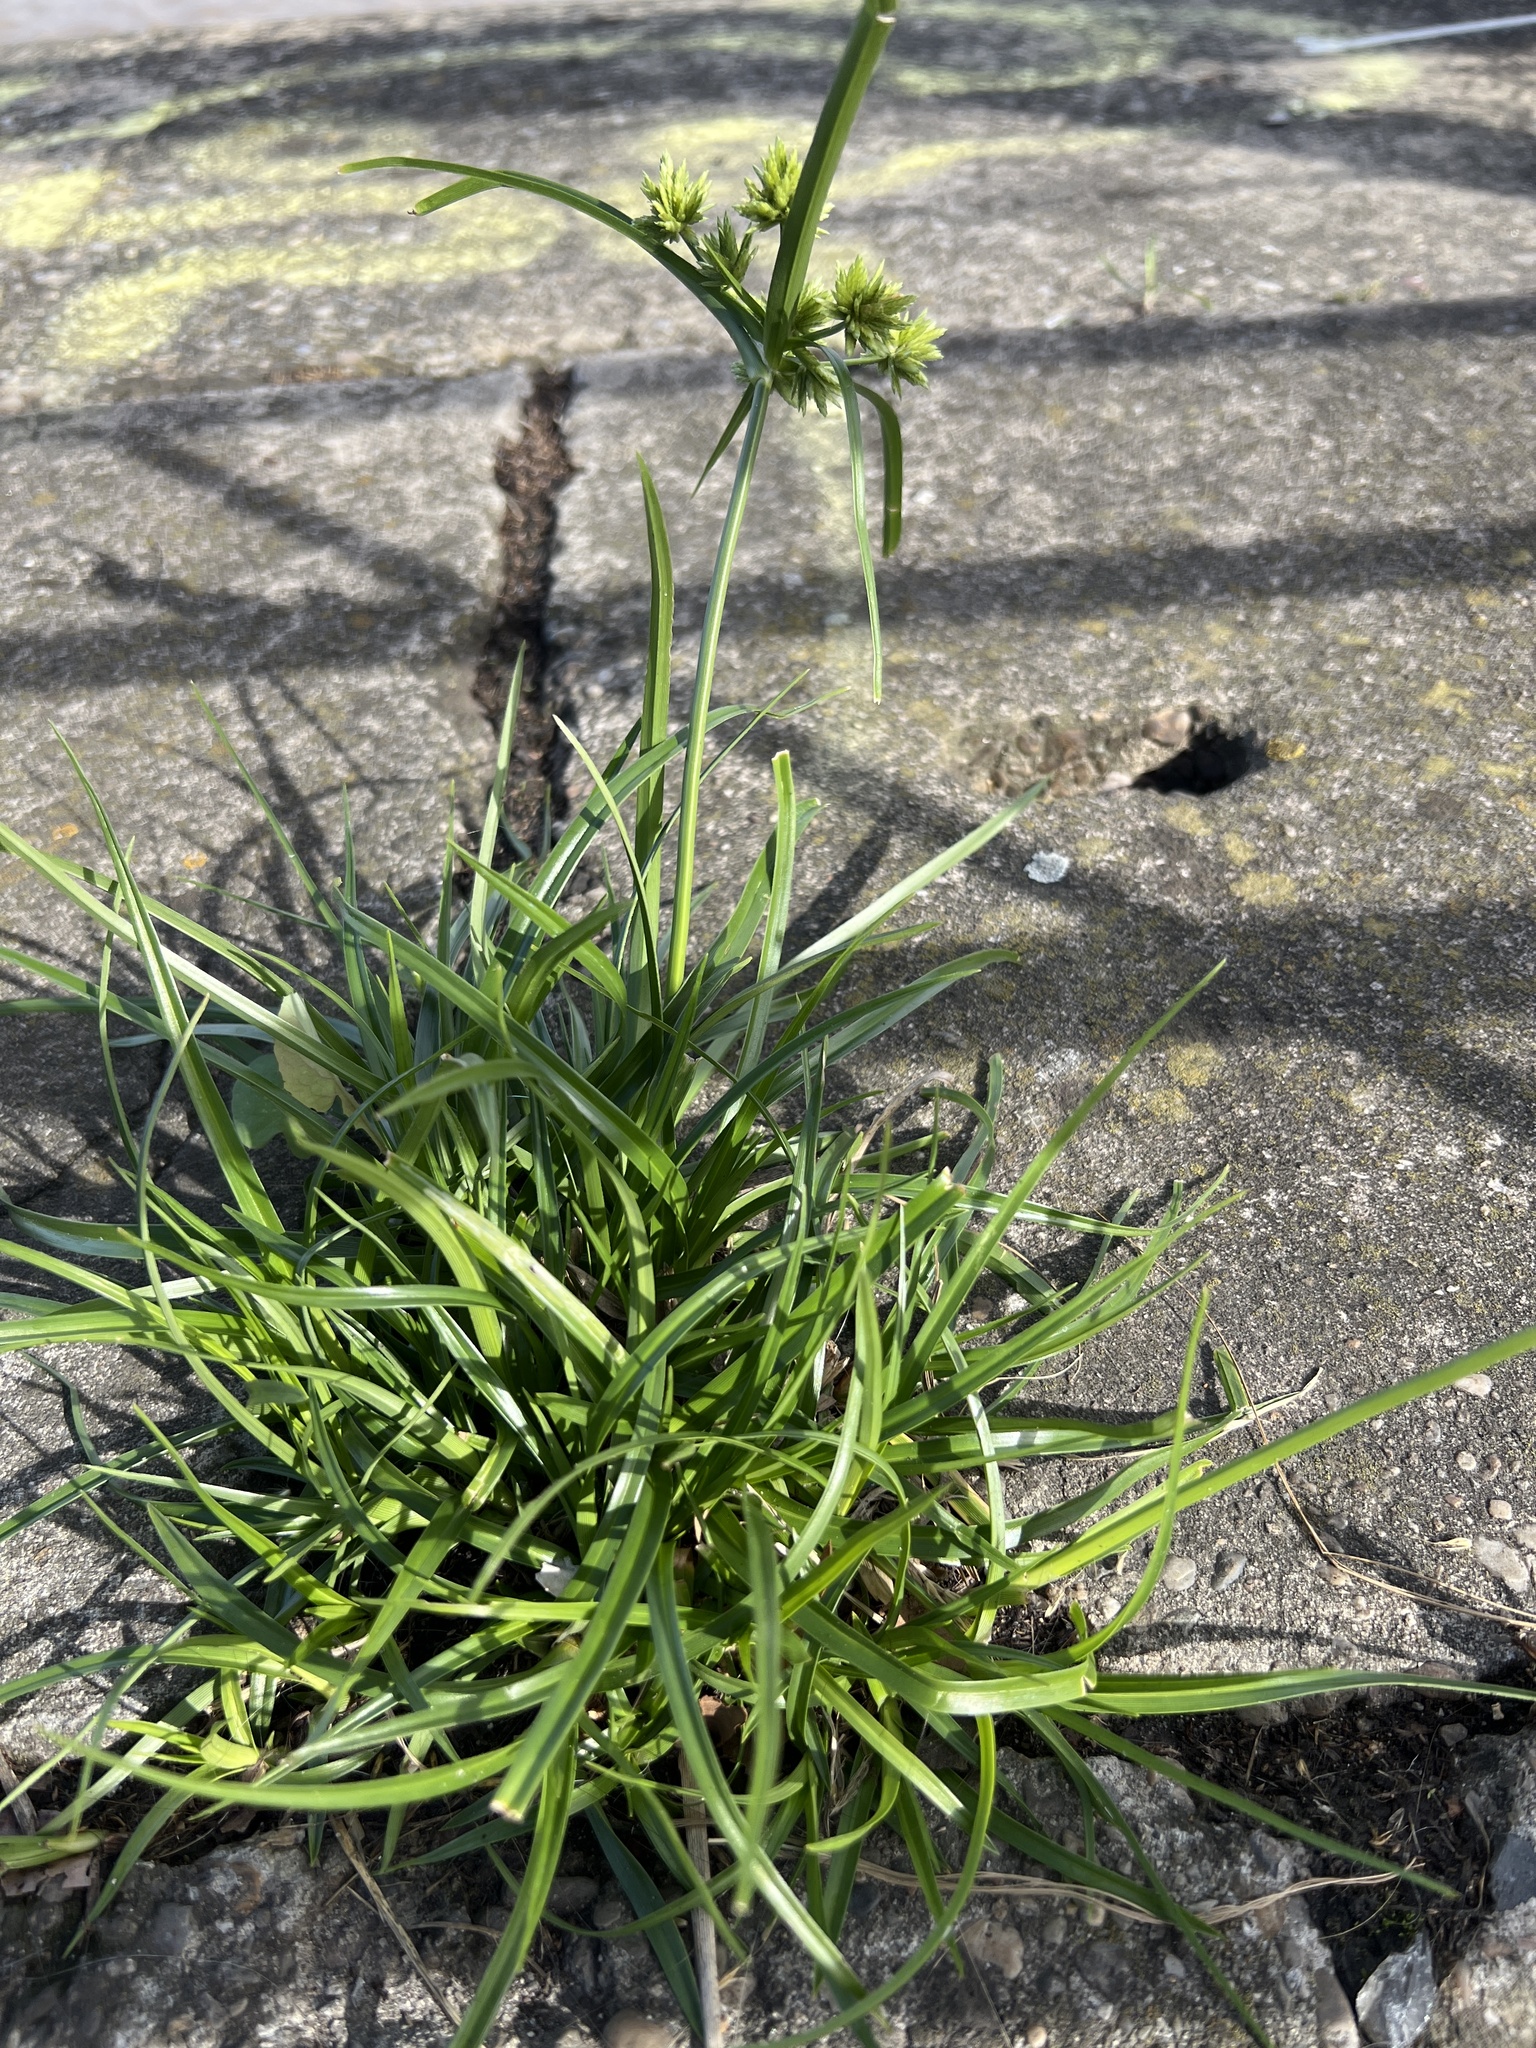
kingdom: Plantae
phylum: Tracheophyta
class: Liliopsida
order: Poales
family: Cyperaceae
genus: Cyperus
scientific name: Cyperus eragrostis
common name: Tall flatsedge
